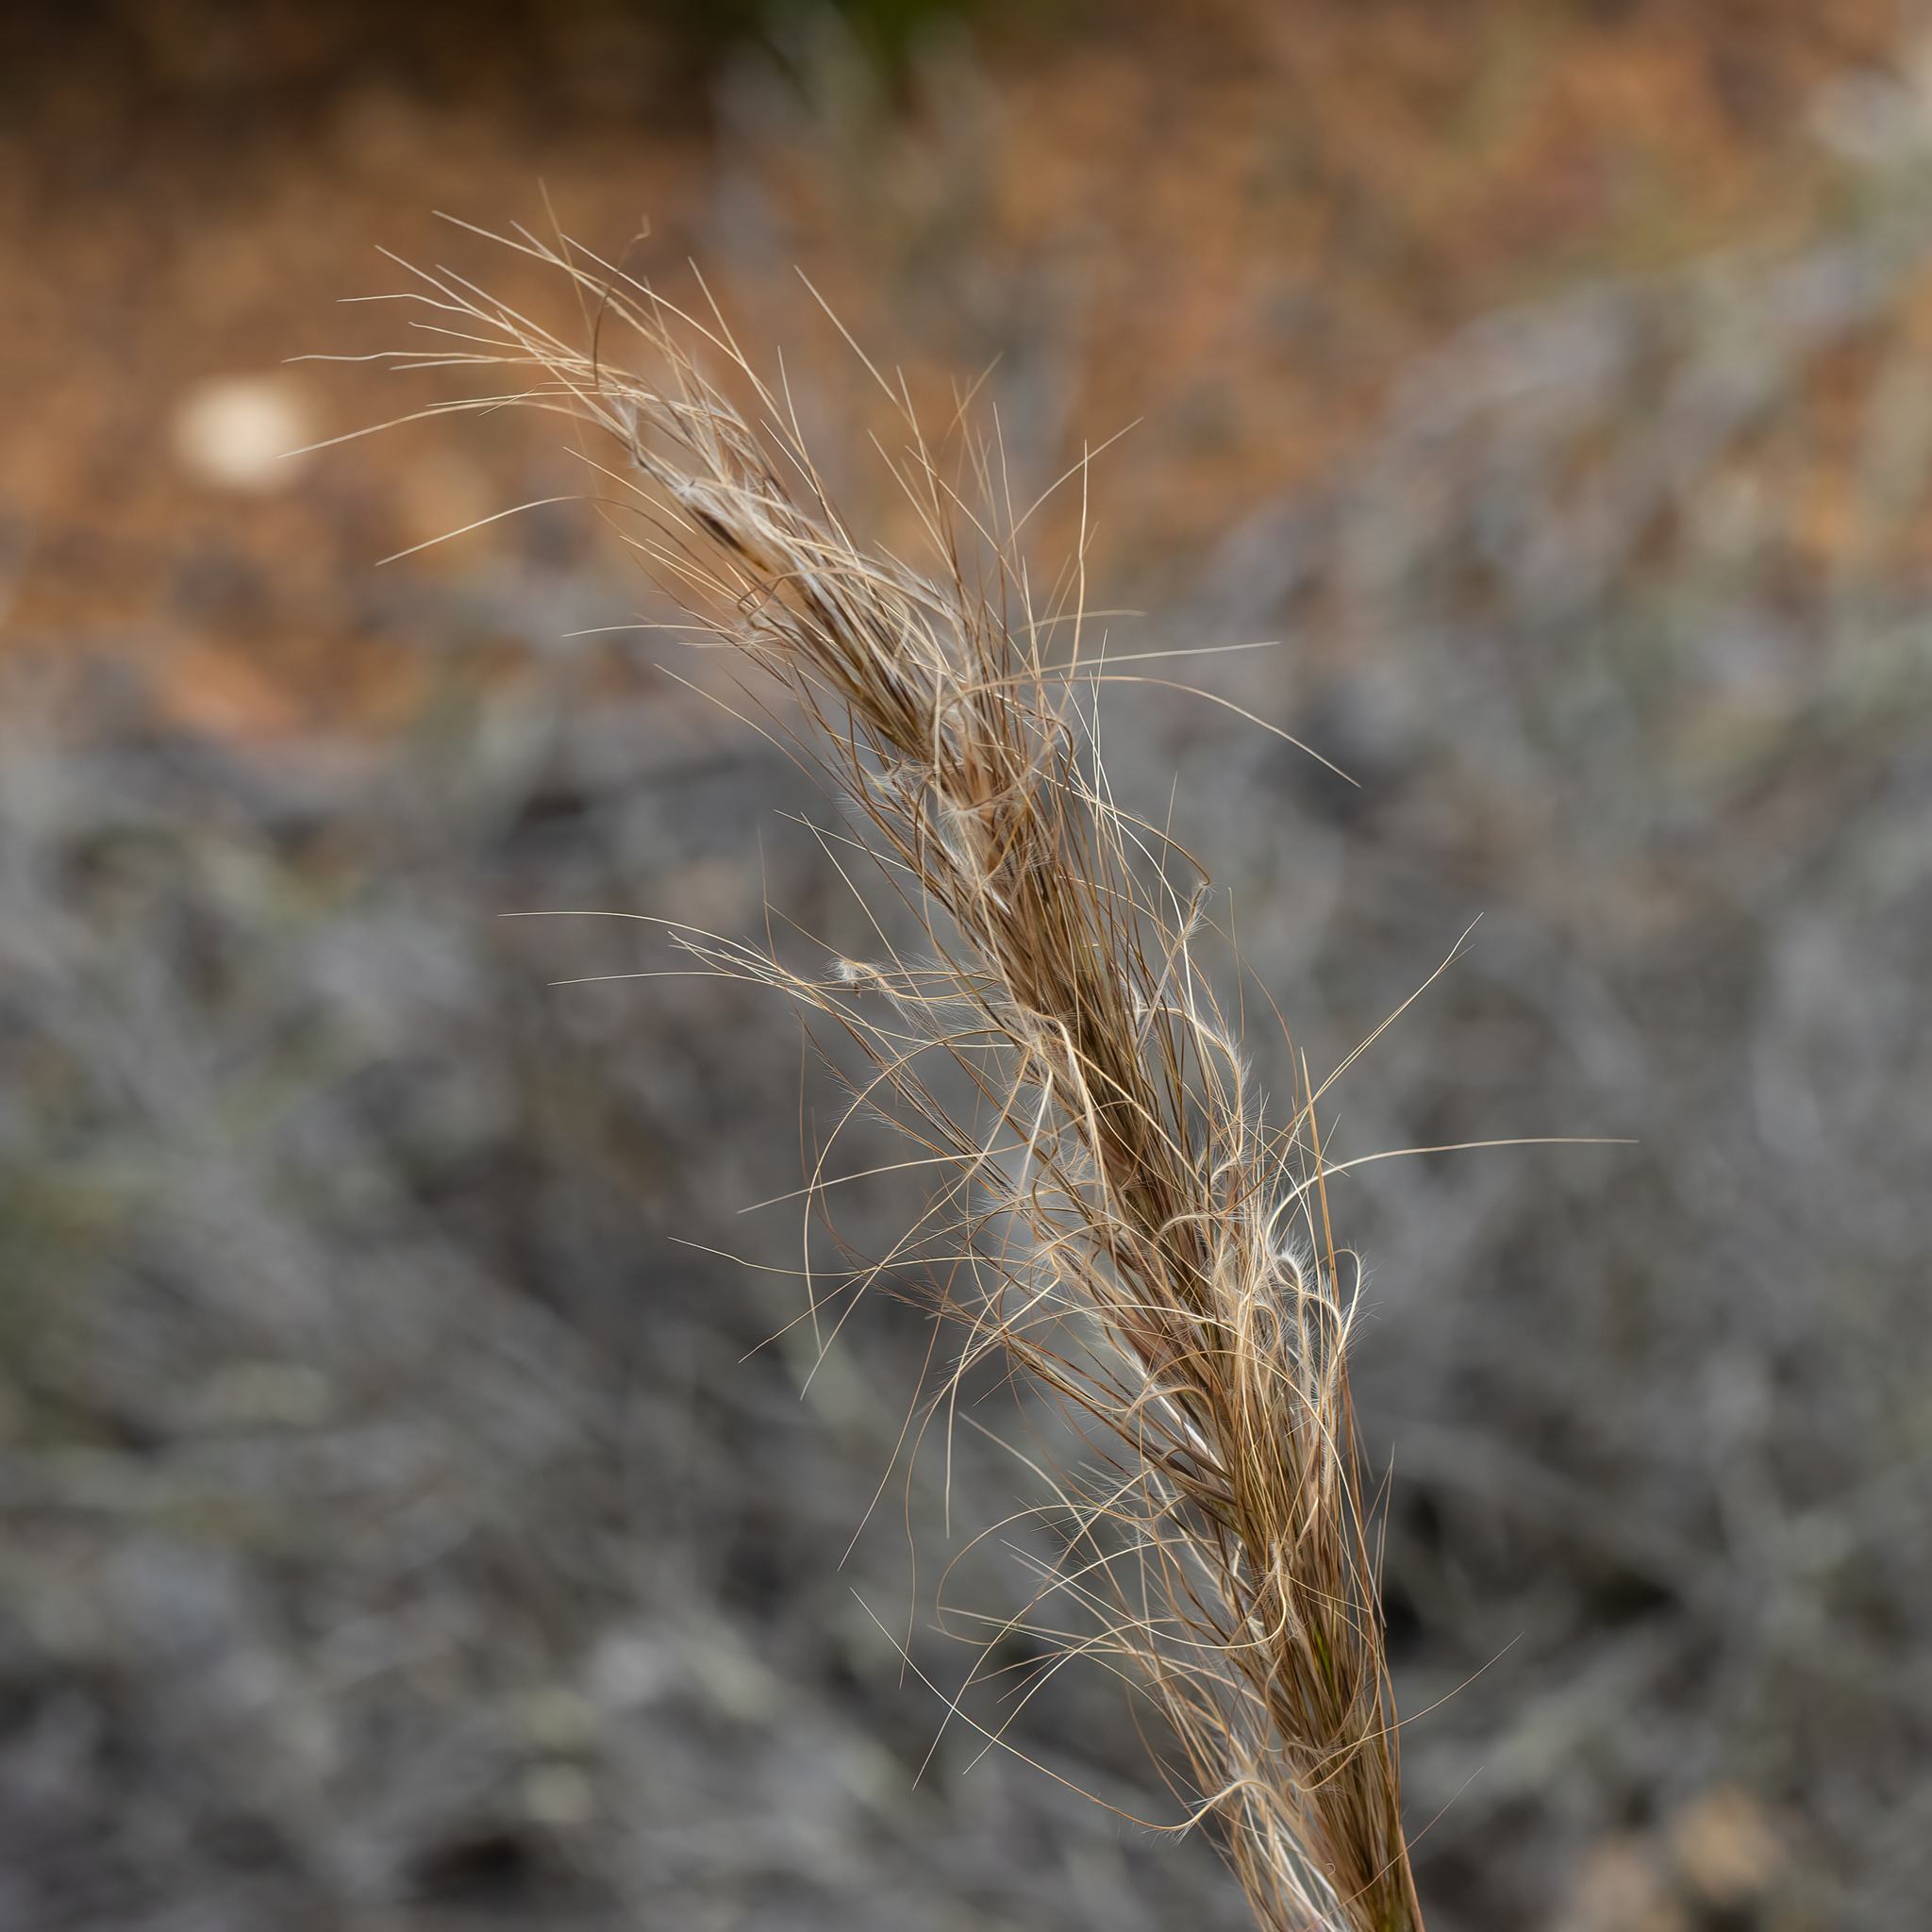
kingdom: Plantae
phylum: Tracheophyta
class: Liliopsida
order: Poales
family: Poaceae
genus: Austrostipa
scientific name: Austrostipa hemipogon
